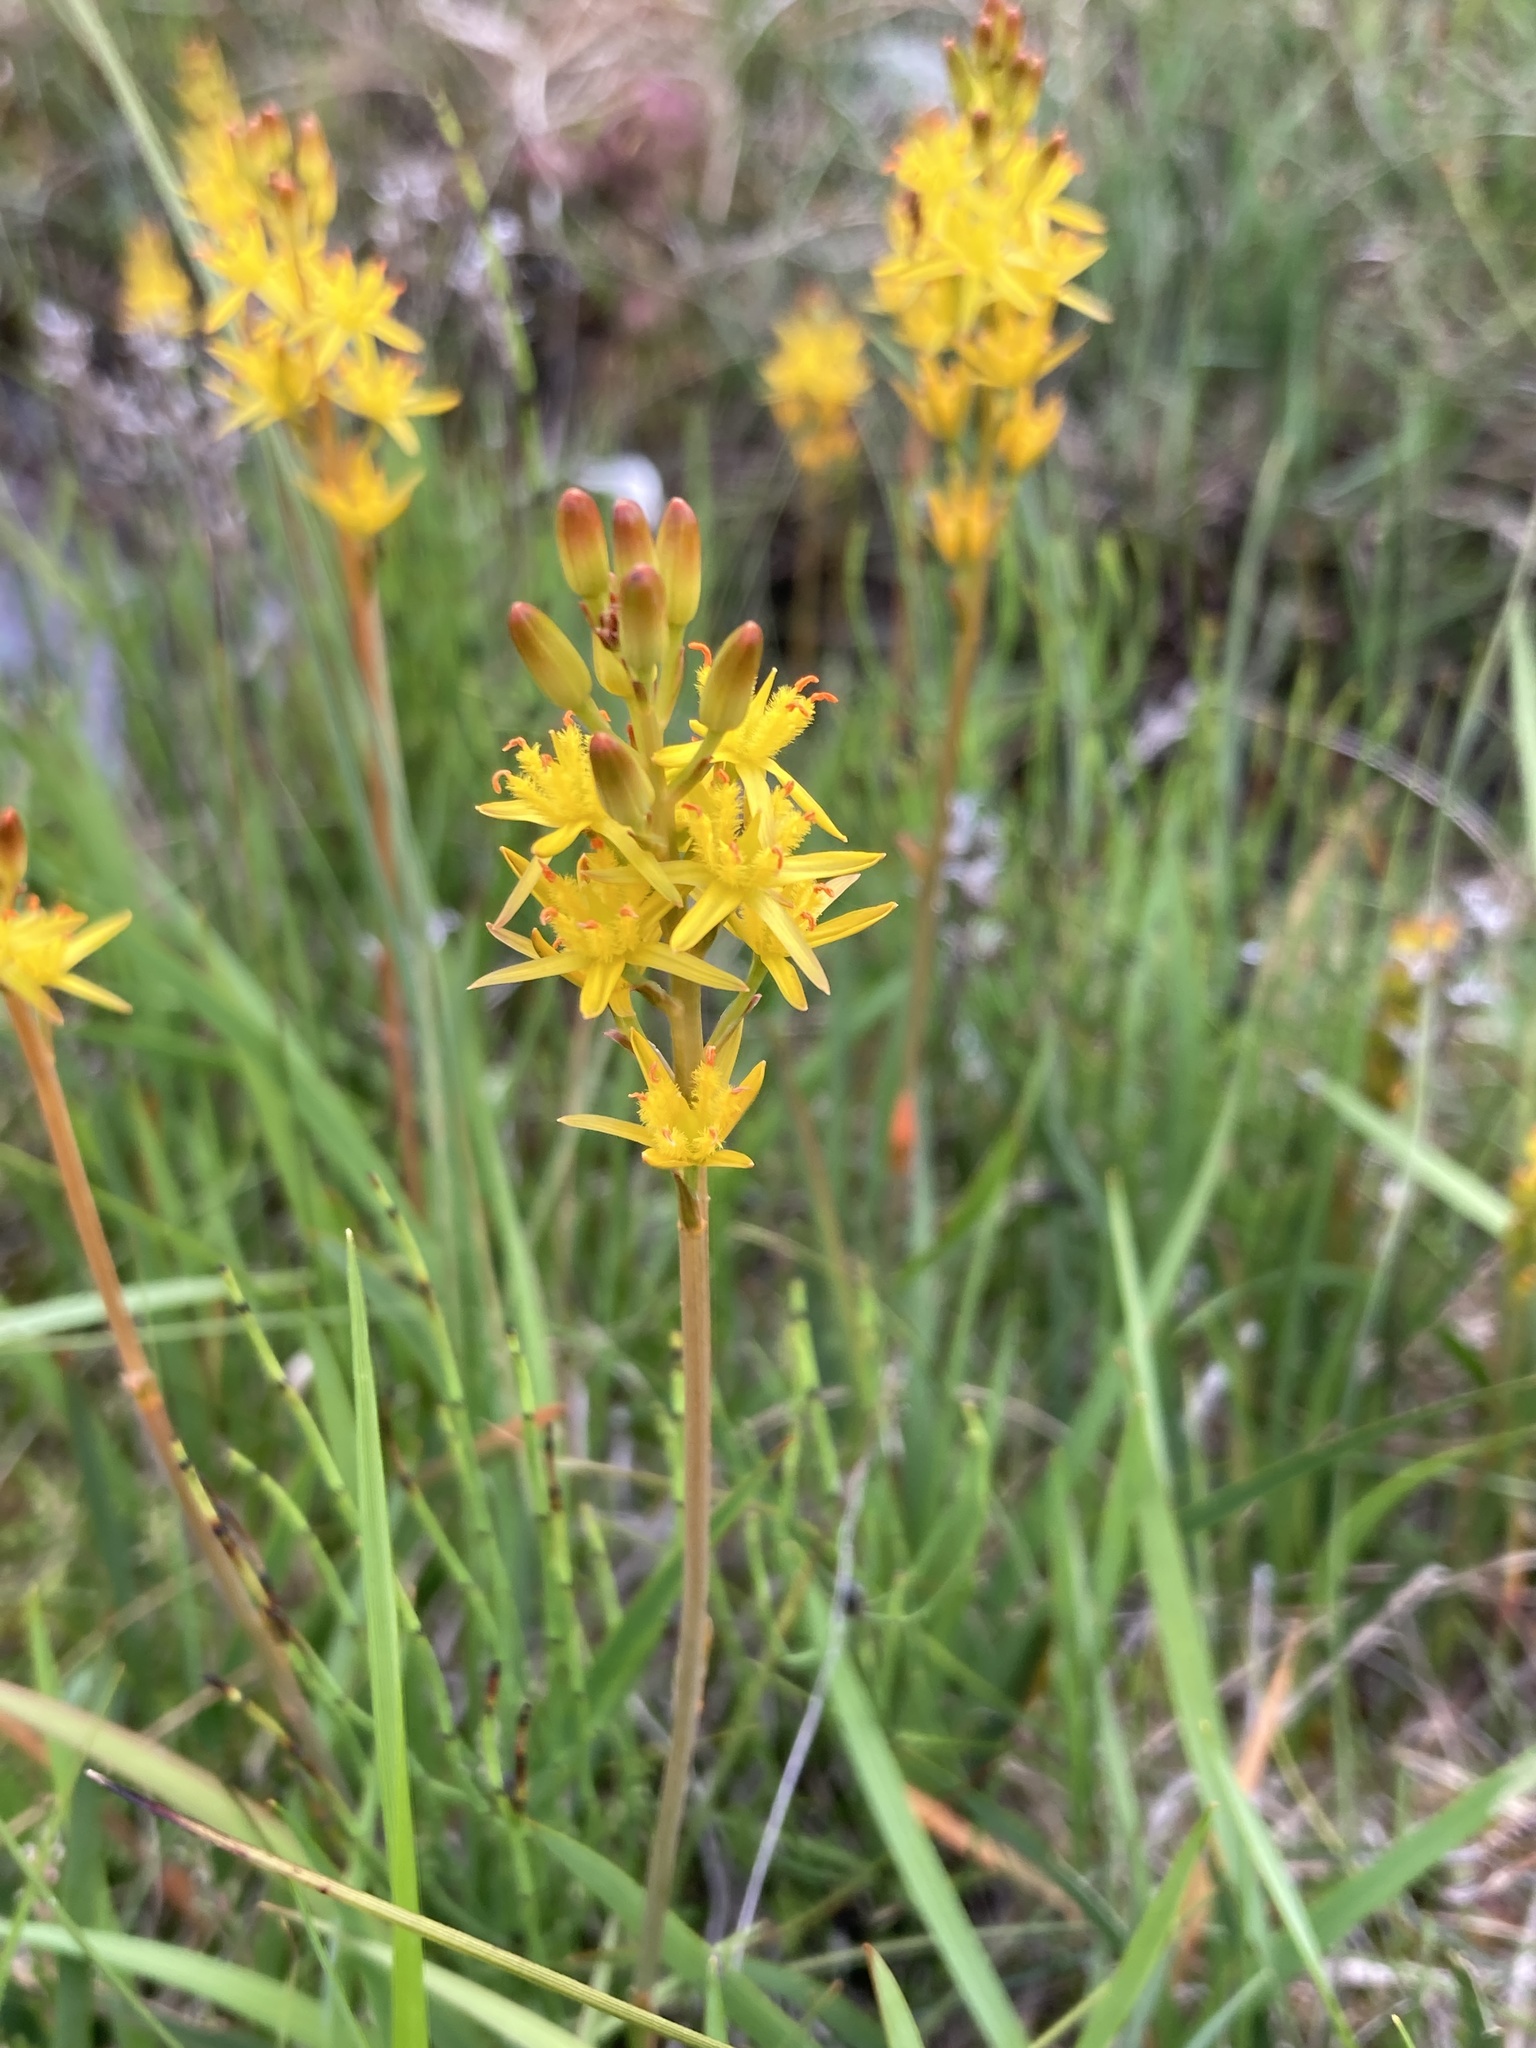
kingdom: Plantae
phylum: Tracheophyta
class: Liliopsida
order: Dioscoreales
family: Nartheciaceae
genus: Narthecium
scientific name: Narthecium ossifragum
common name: Bog asphodel
